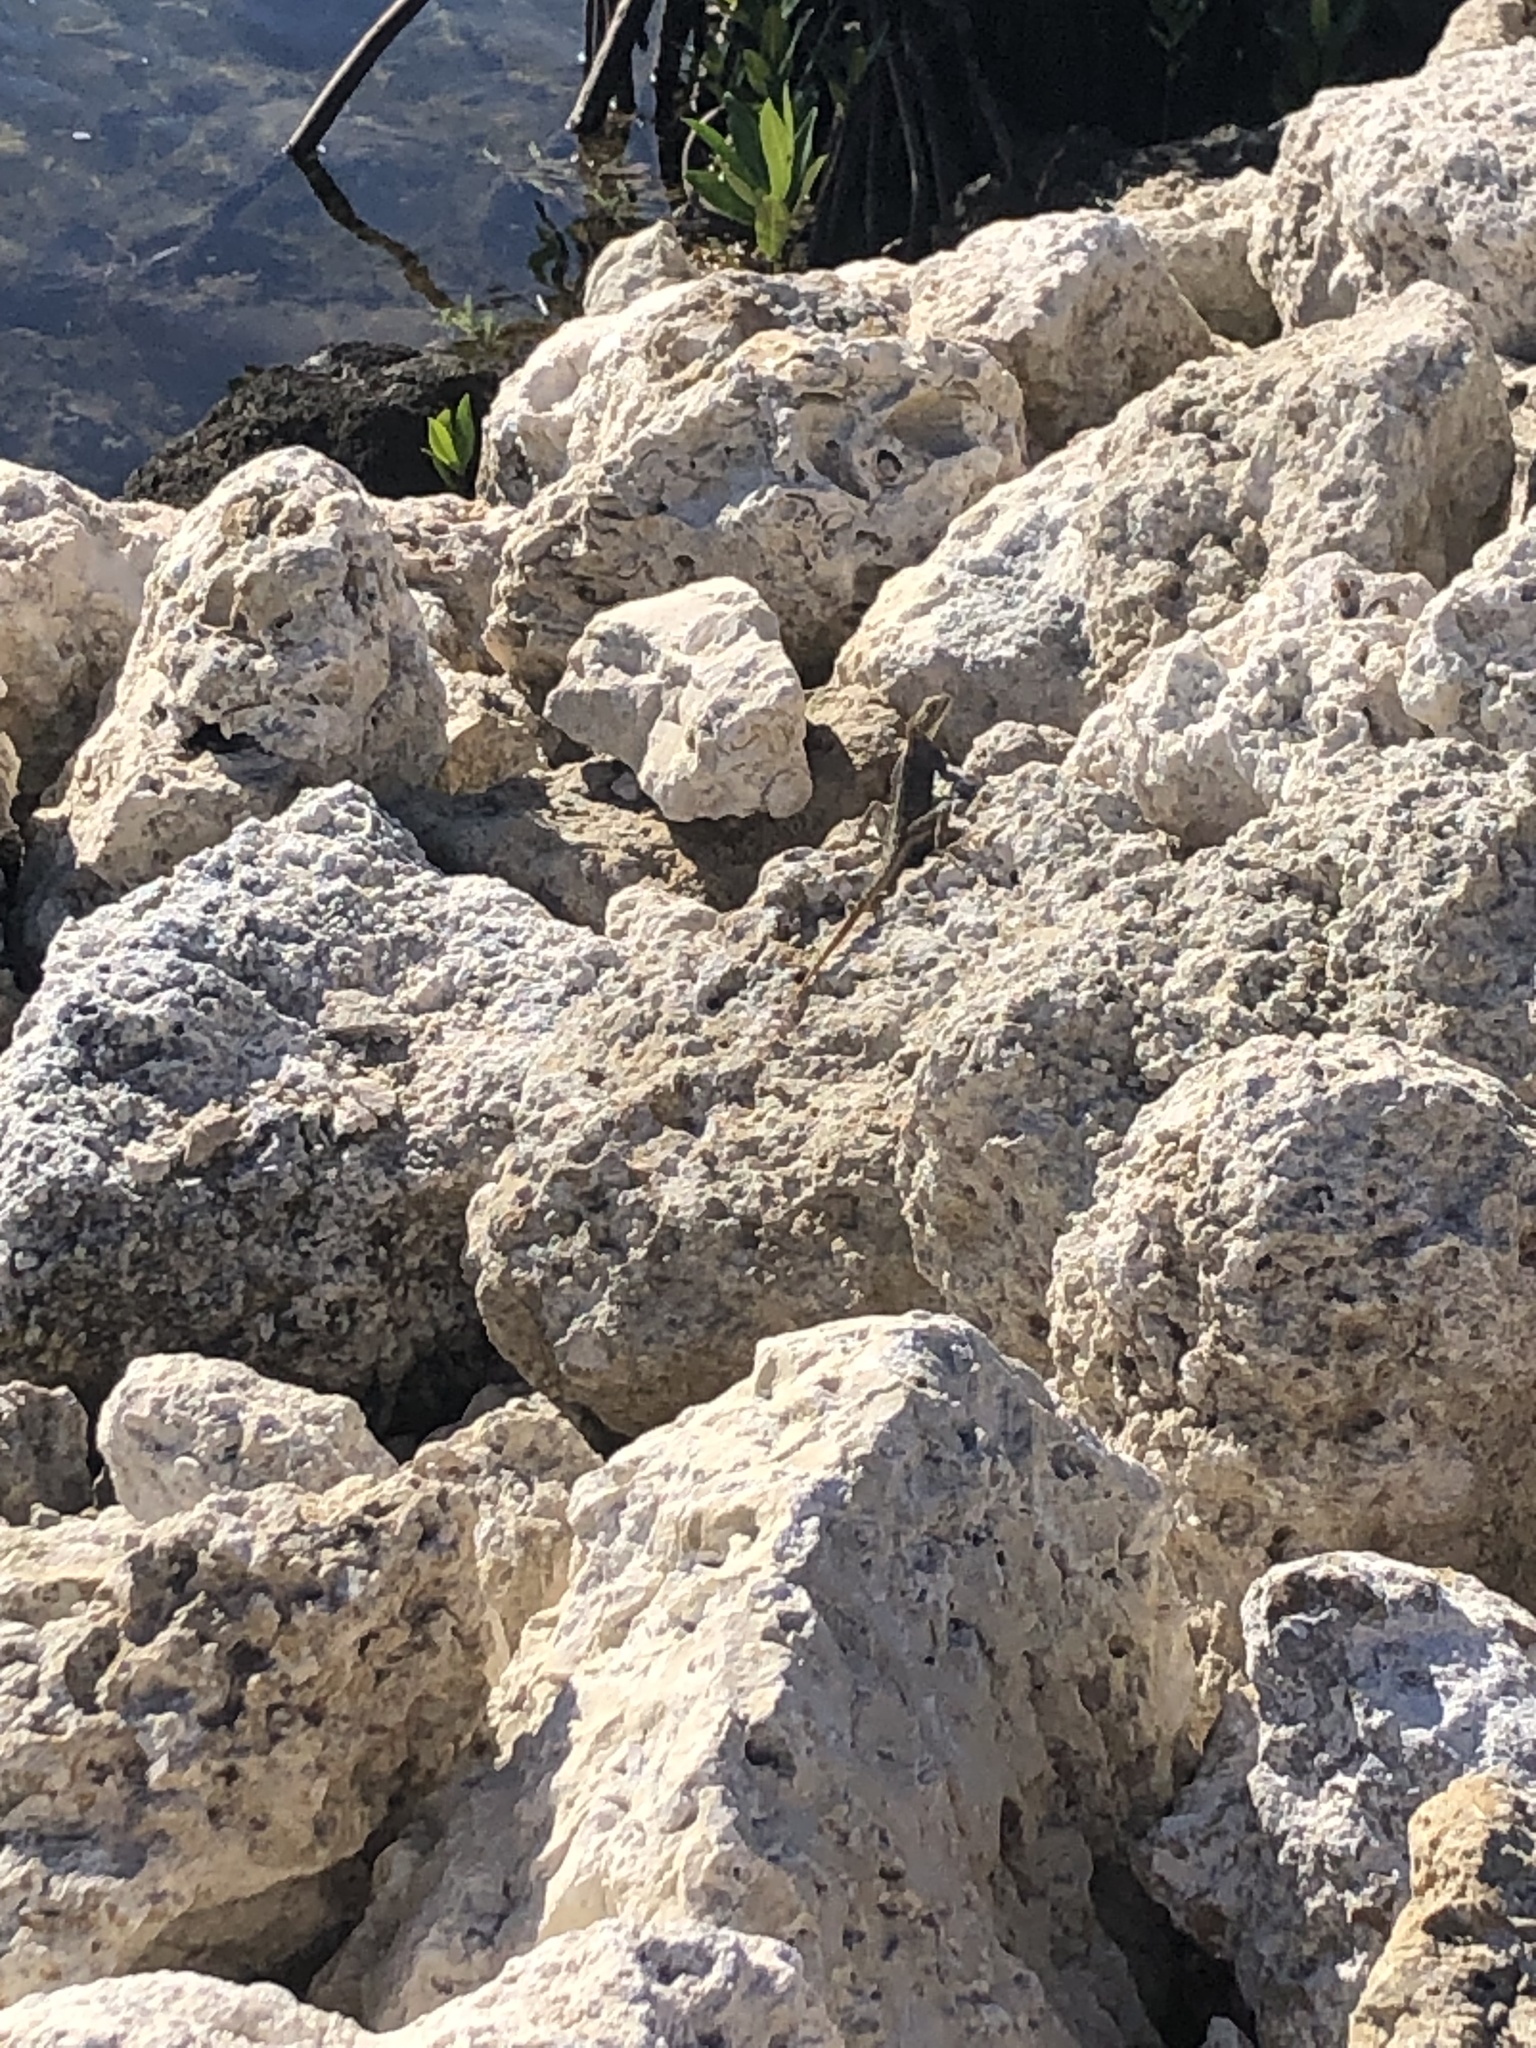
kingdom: Animalia
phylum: Chordata
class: Squamata
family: Agamidae
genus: Agama
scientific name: Agama picticauda
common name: Red-headed agama
